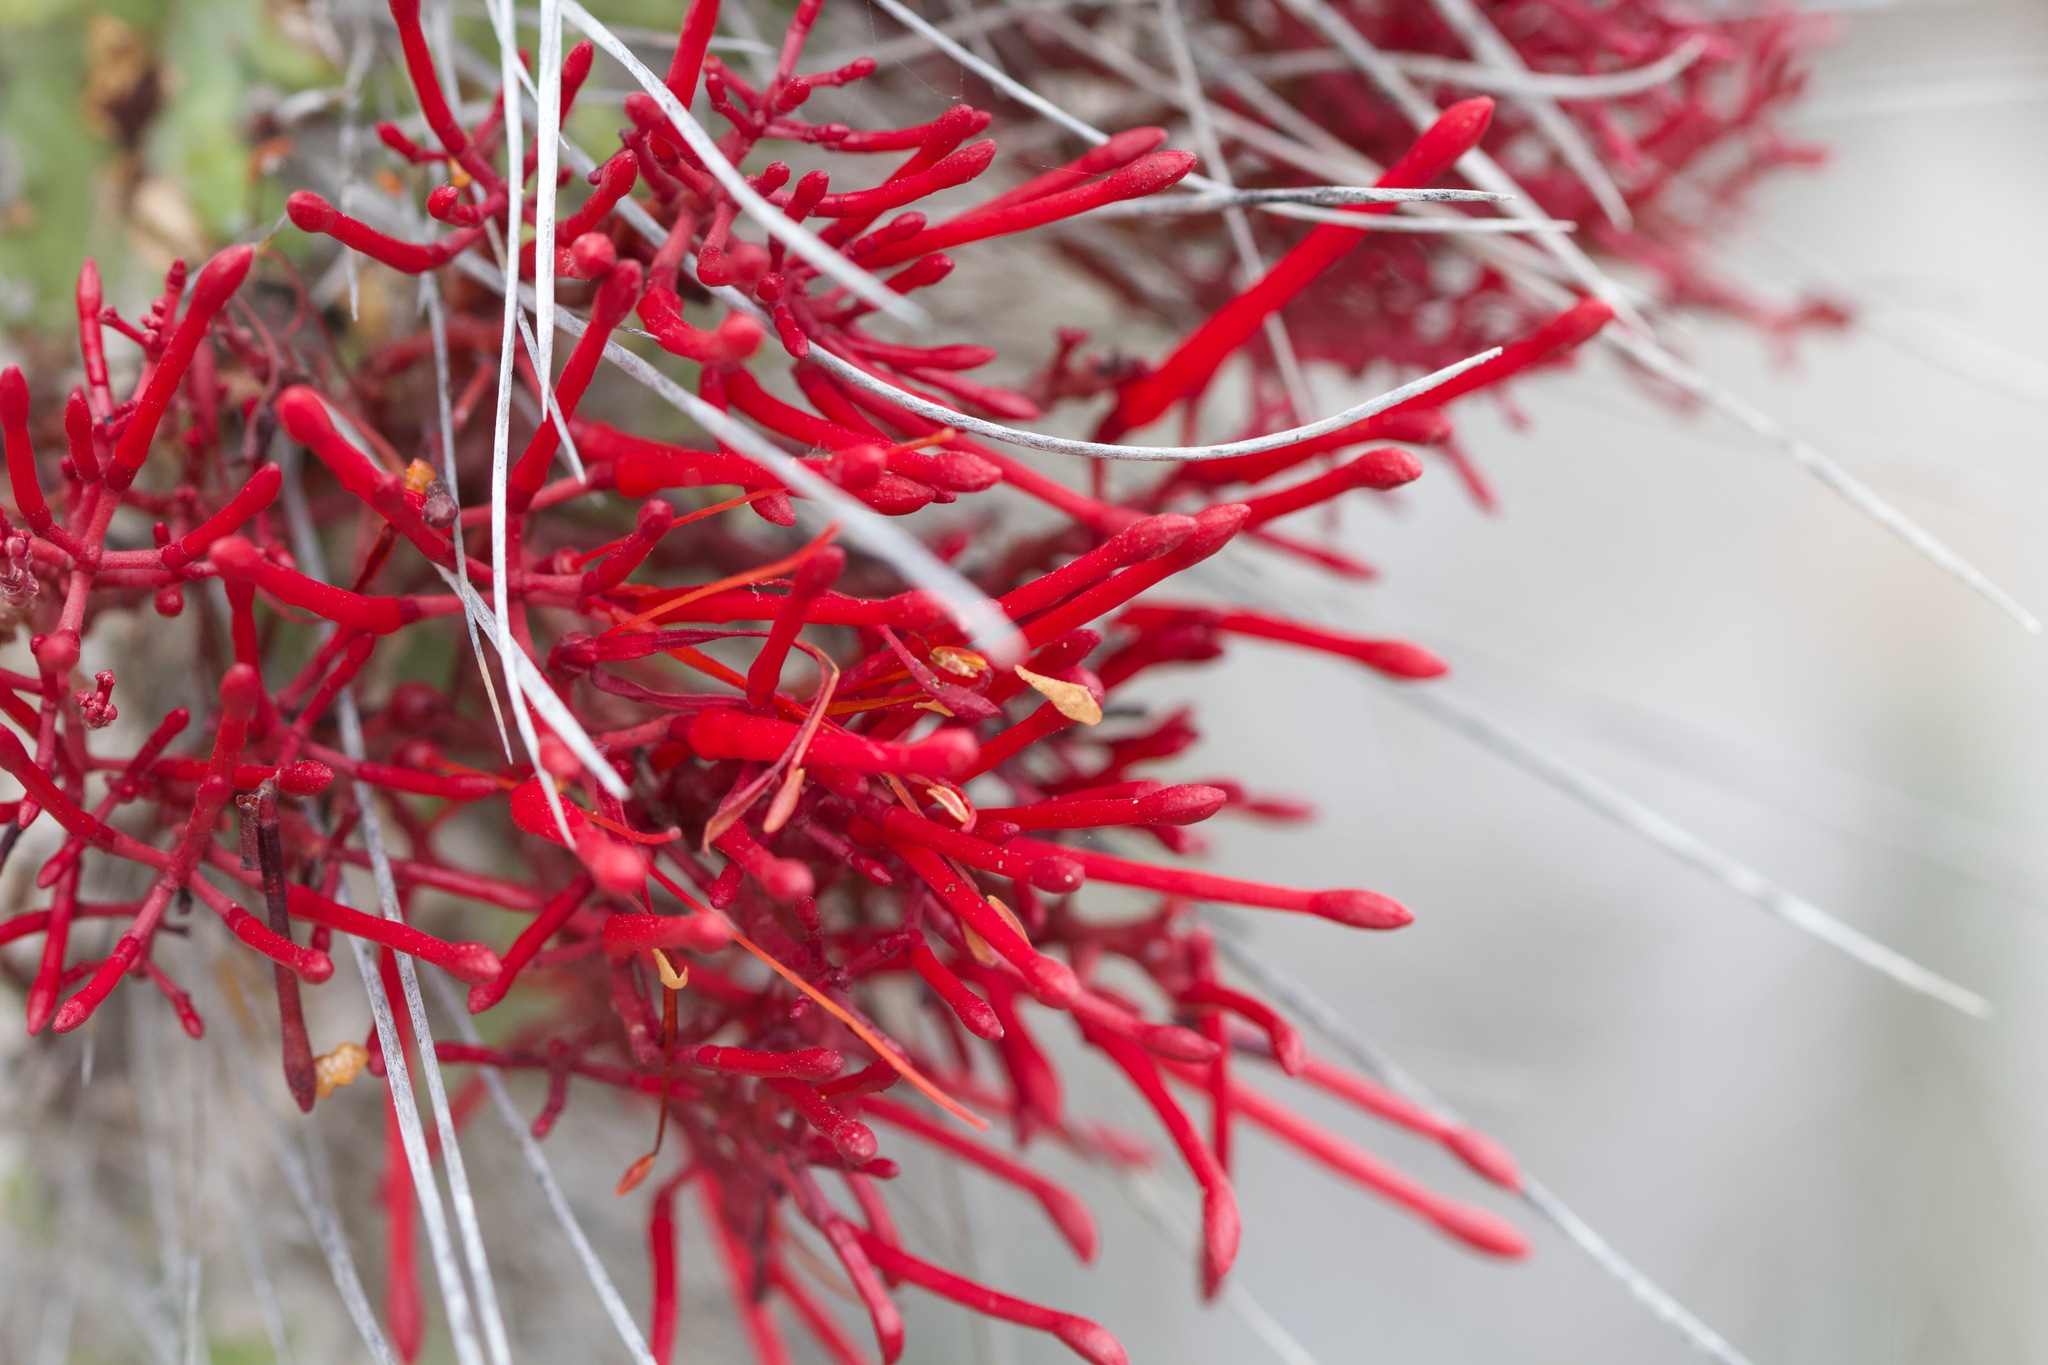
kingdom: Plantae
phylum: Tracheophyta
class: Magnoliopsida
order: Santalales
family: Loranthaceae
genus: Tristerix
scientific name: Tristerix aphyllus
